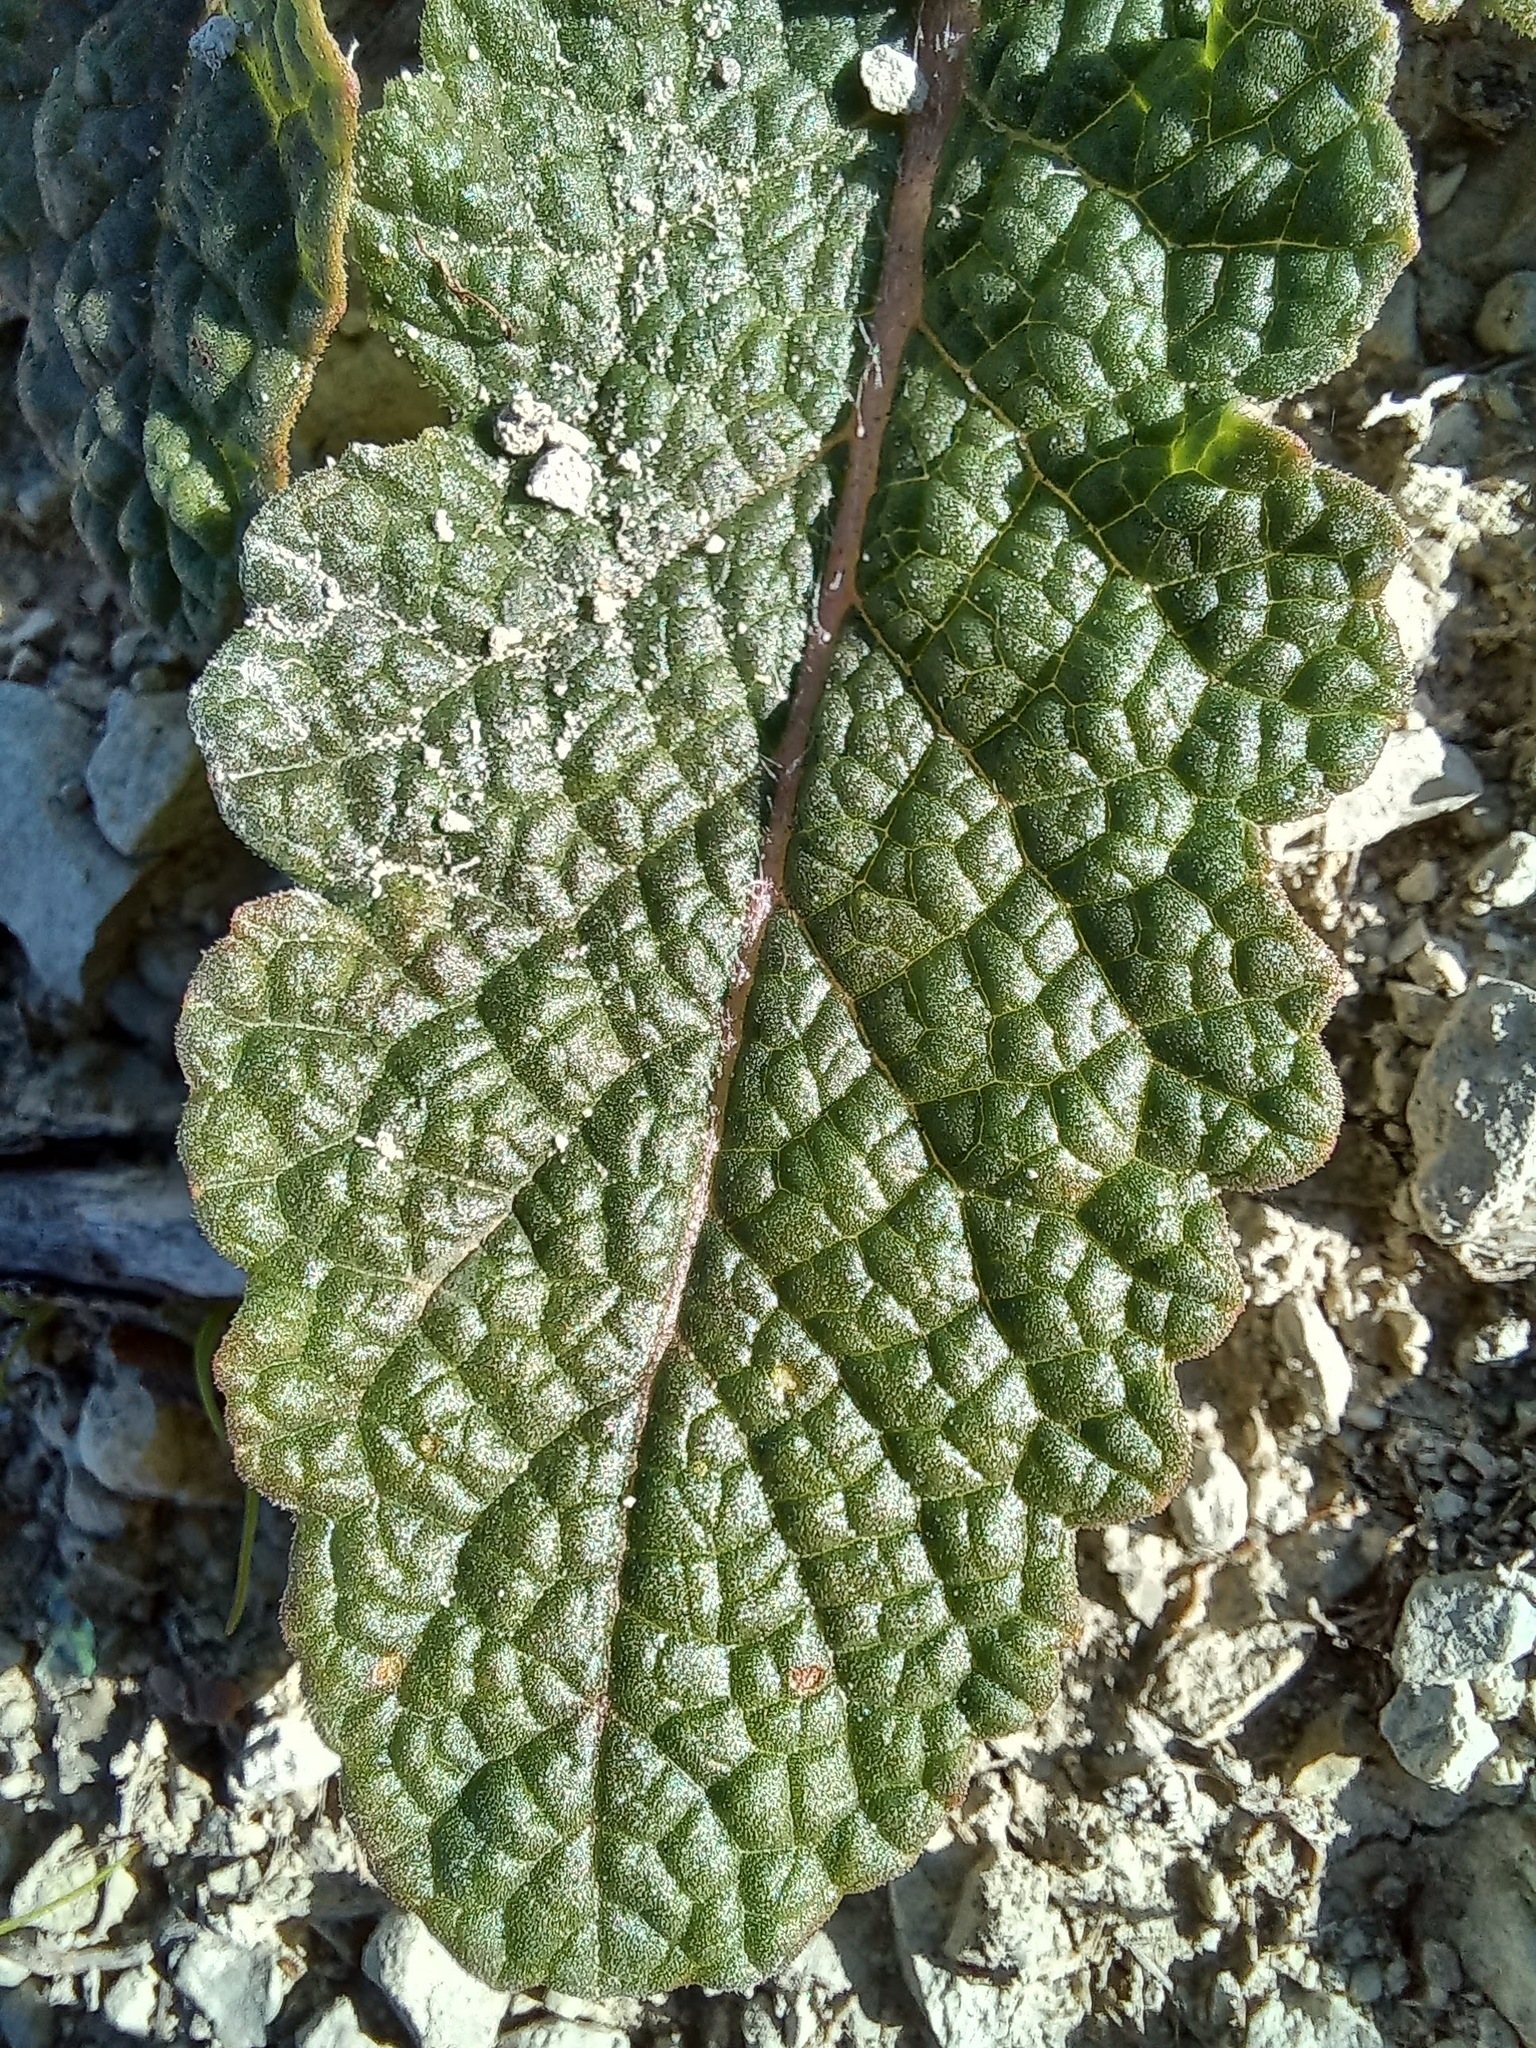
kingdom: Plantae
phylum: Tracheophyta
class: Magnoliopsida
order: Lamiales
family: Lamiaceae
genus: Salvia
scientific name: Salvia verbenaca
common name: Wild clary
